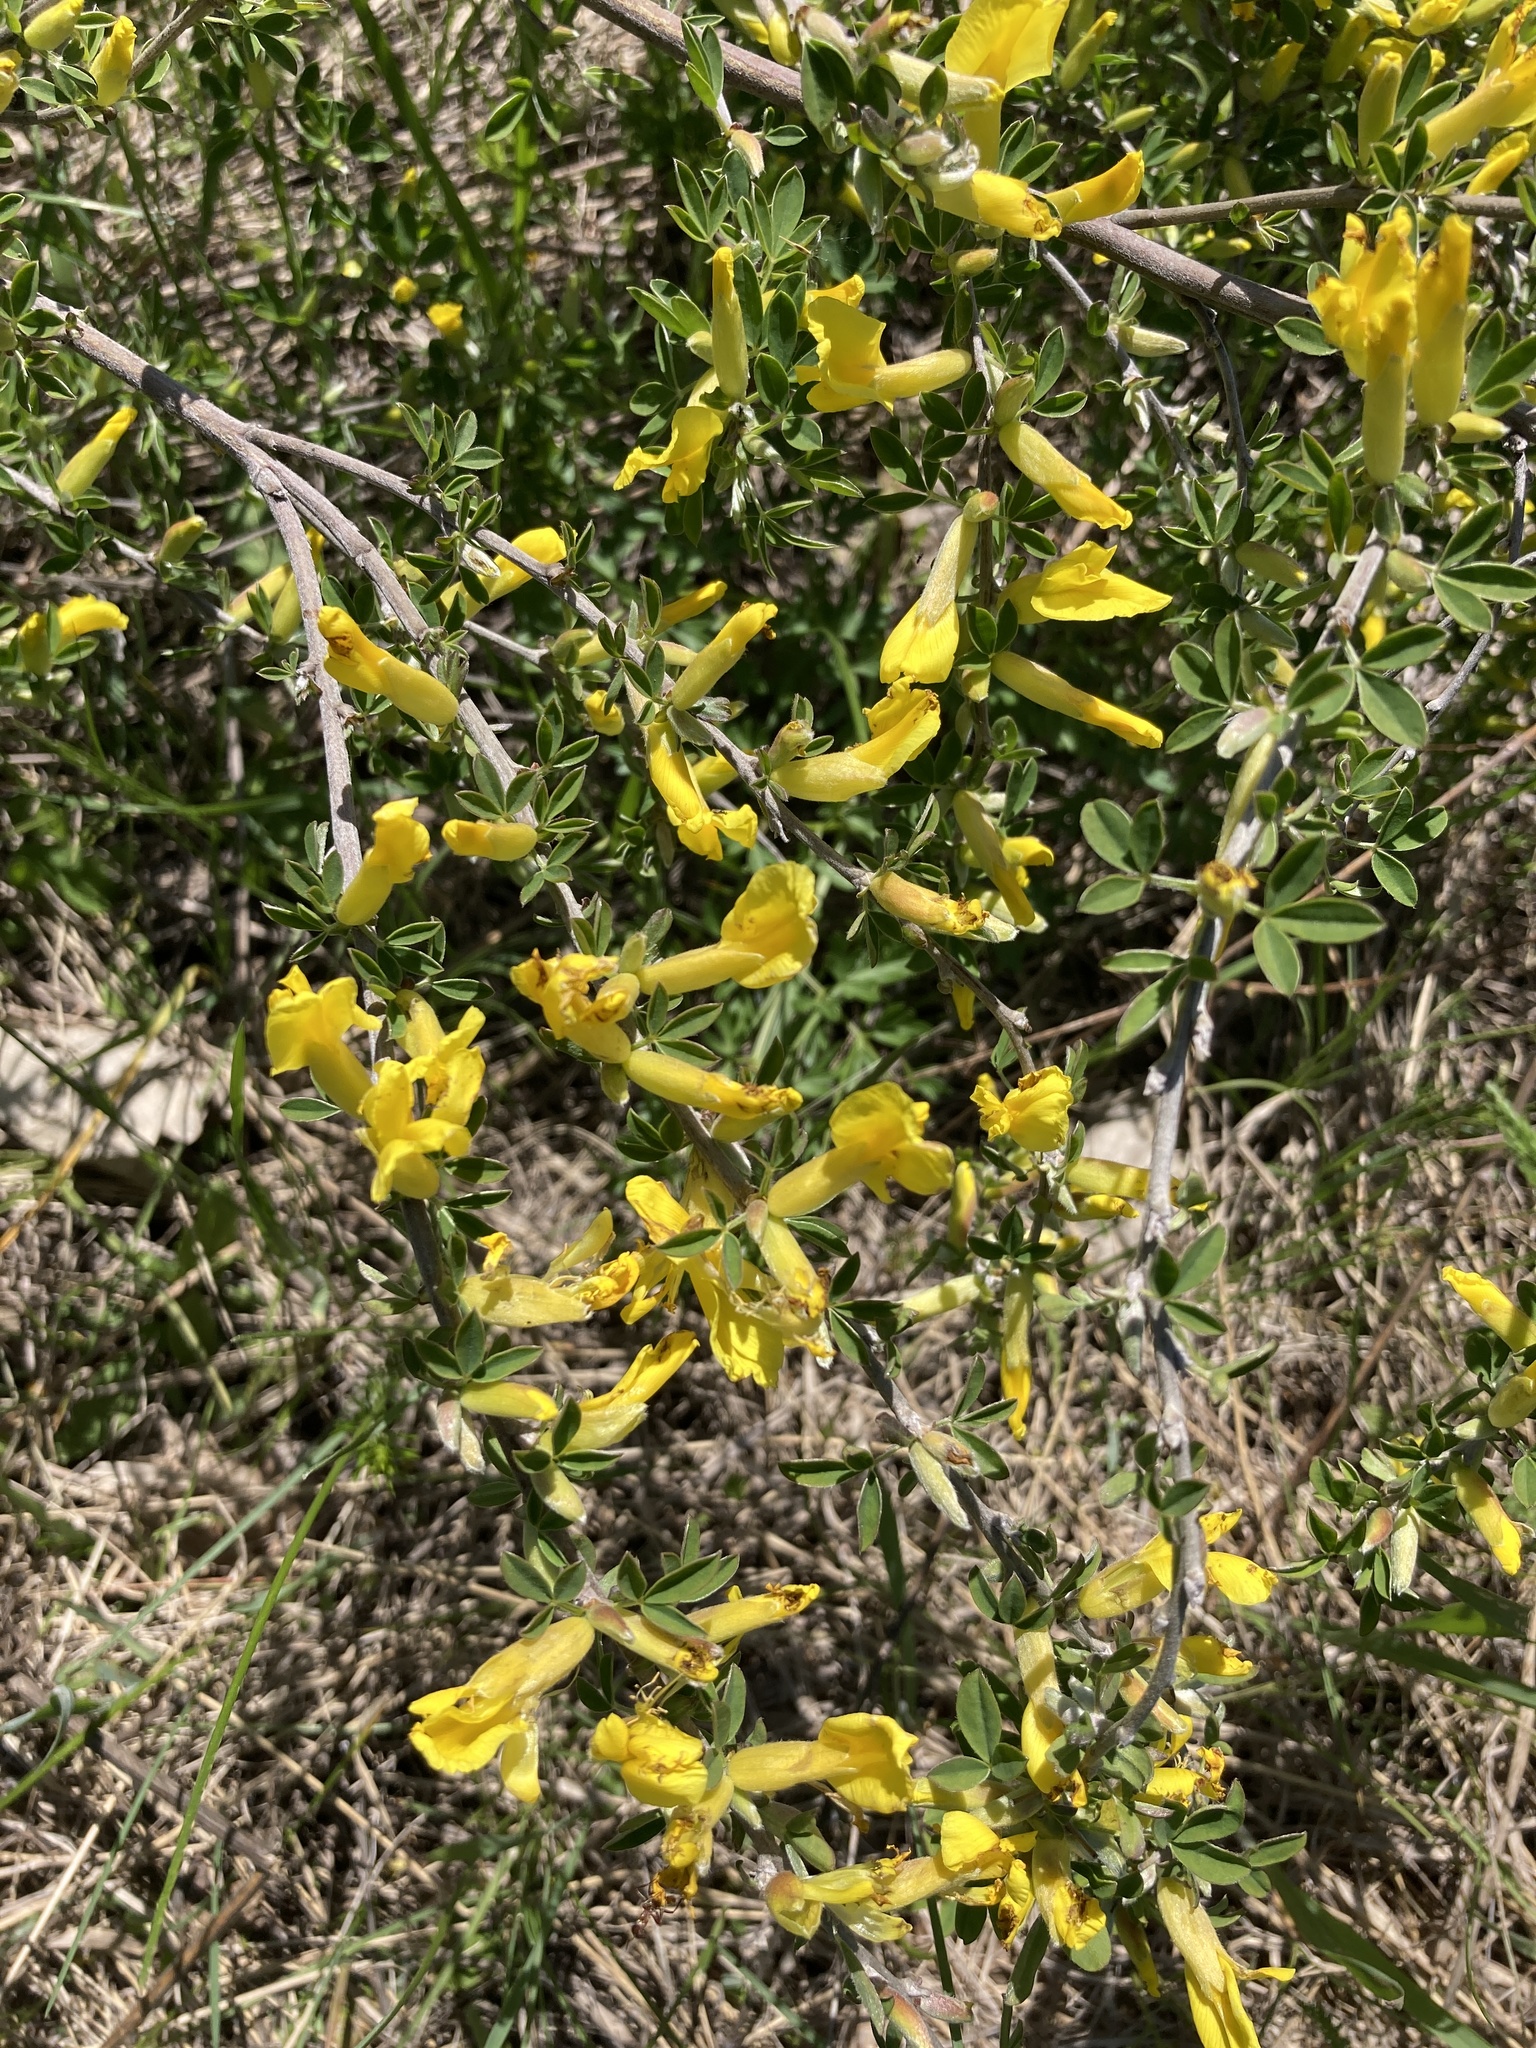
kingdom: Plantae
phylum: Tracheophyta
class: Magnoliopsida
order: Fabales
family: Fabaceae
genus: Chamaecytisus
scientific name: Chamaecytisus ruthenicus
